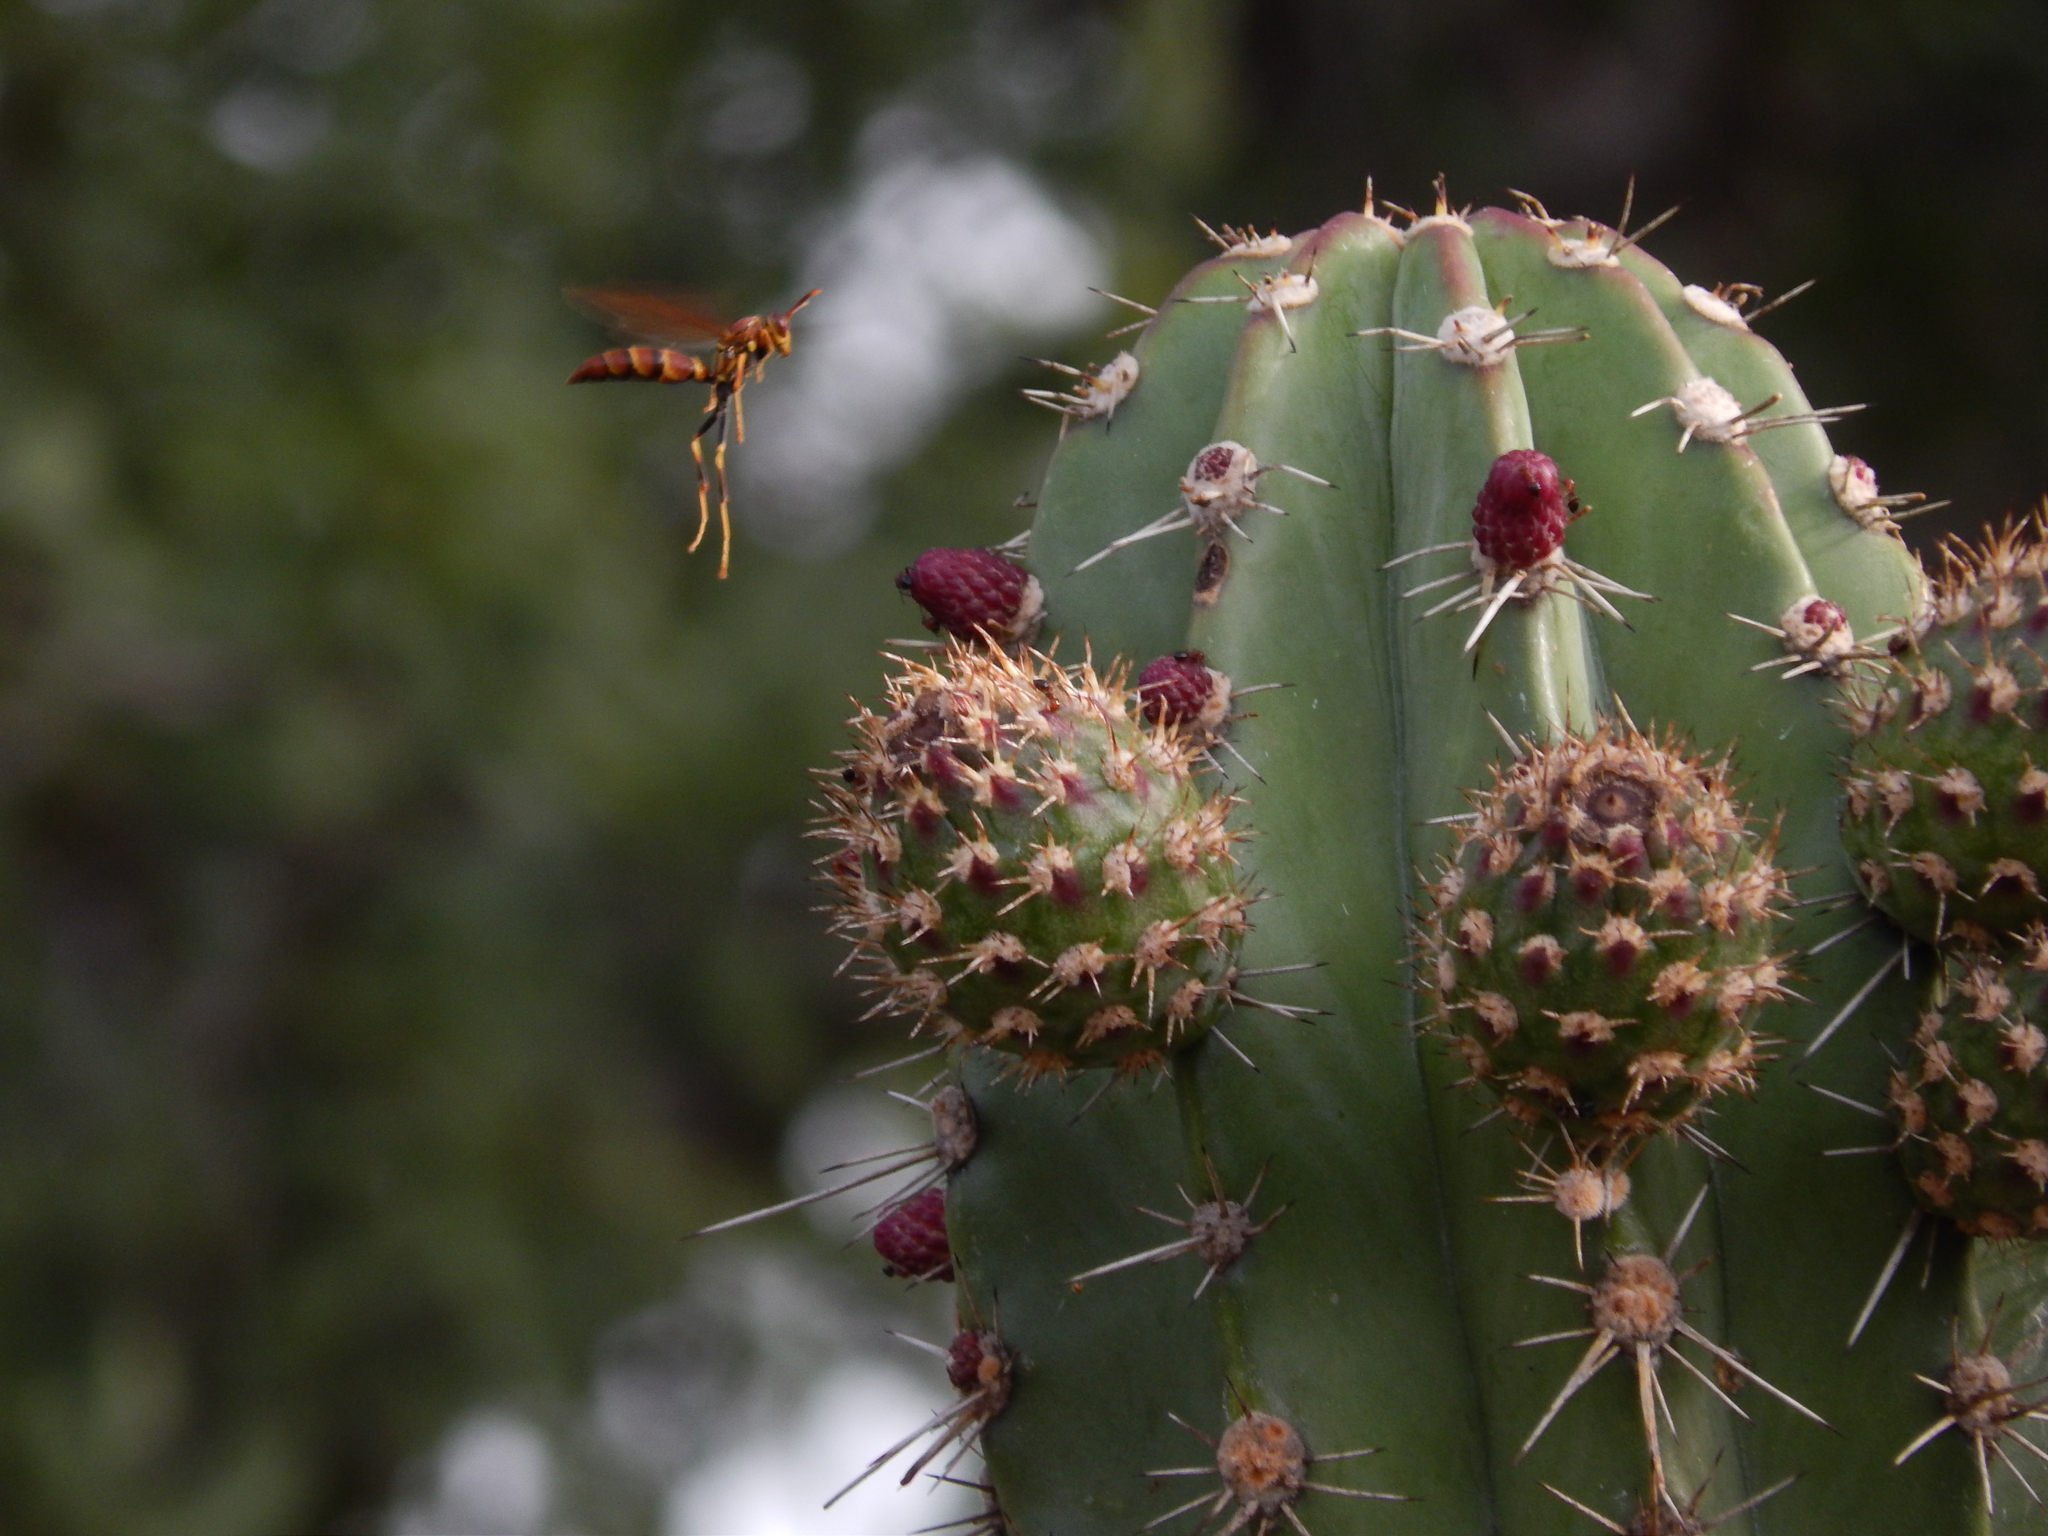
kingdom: Animalia
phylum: Arthropoda
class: Insecta
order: Hymenoptera
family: Eumenidae
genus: Polistes
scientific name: Polistes instabilis
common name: Unstable paper wasp
